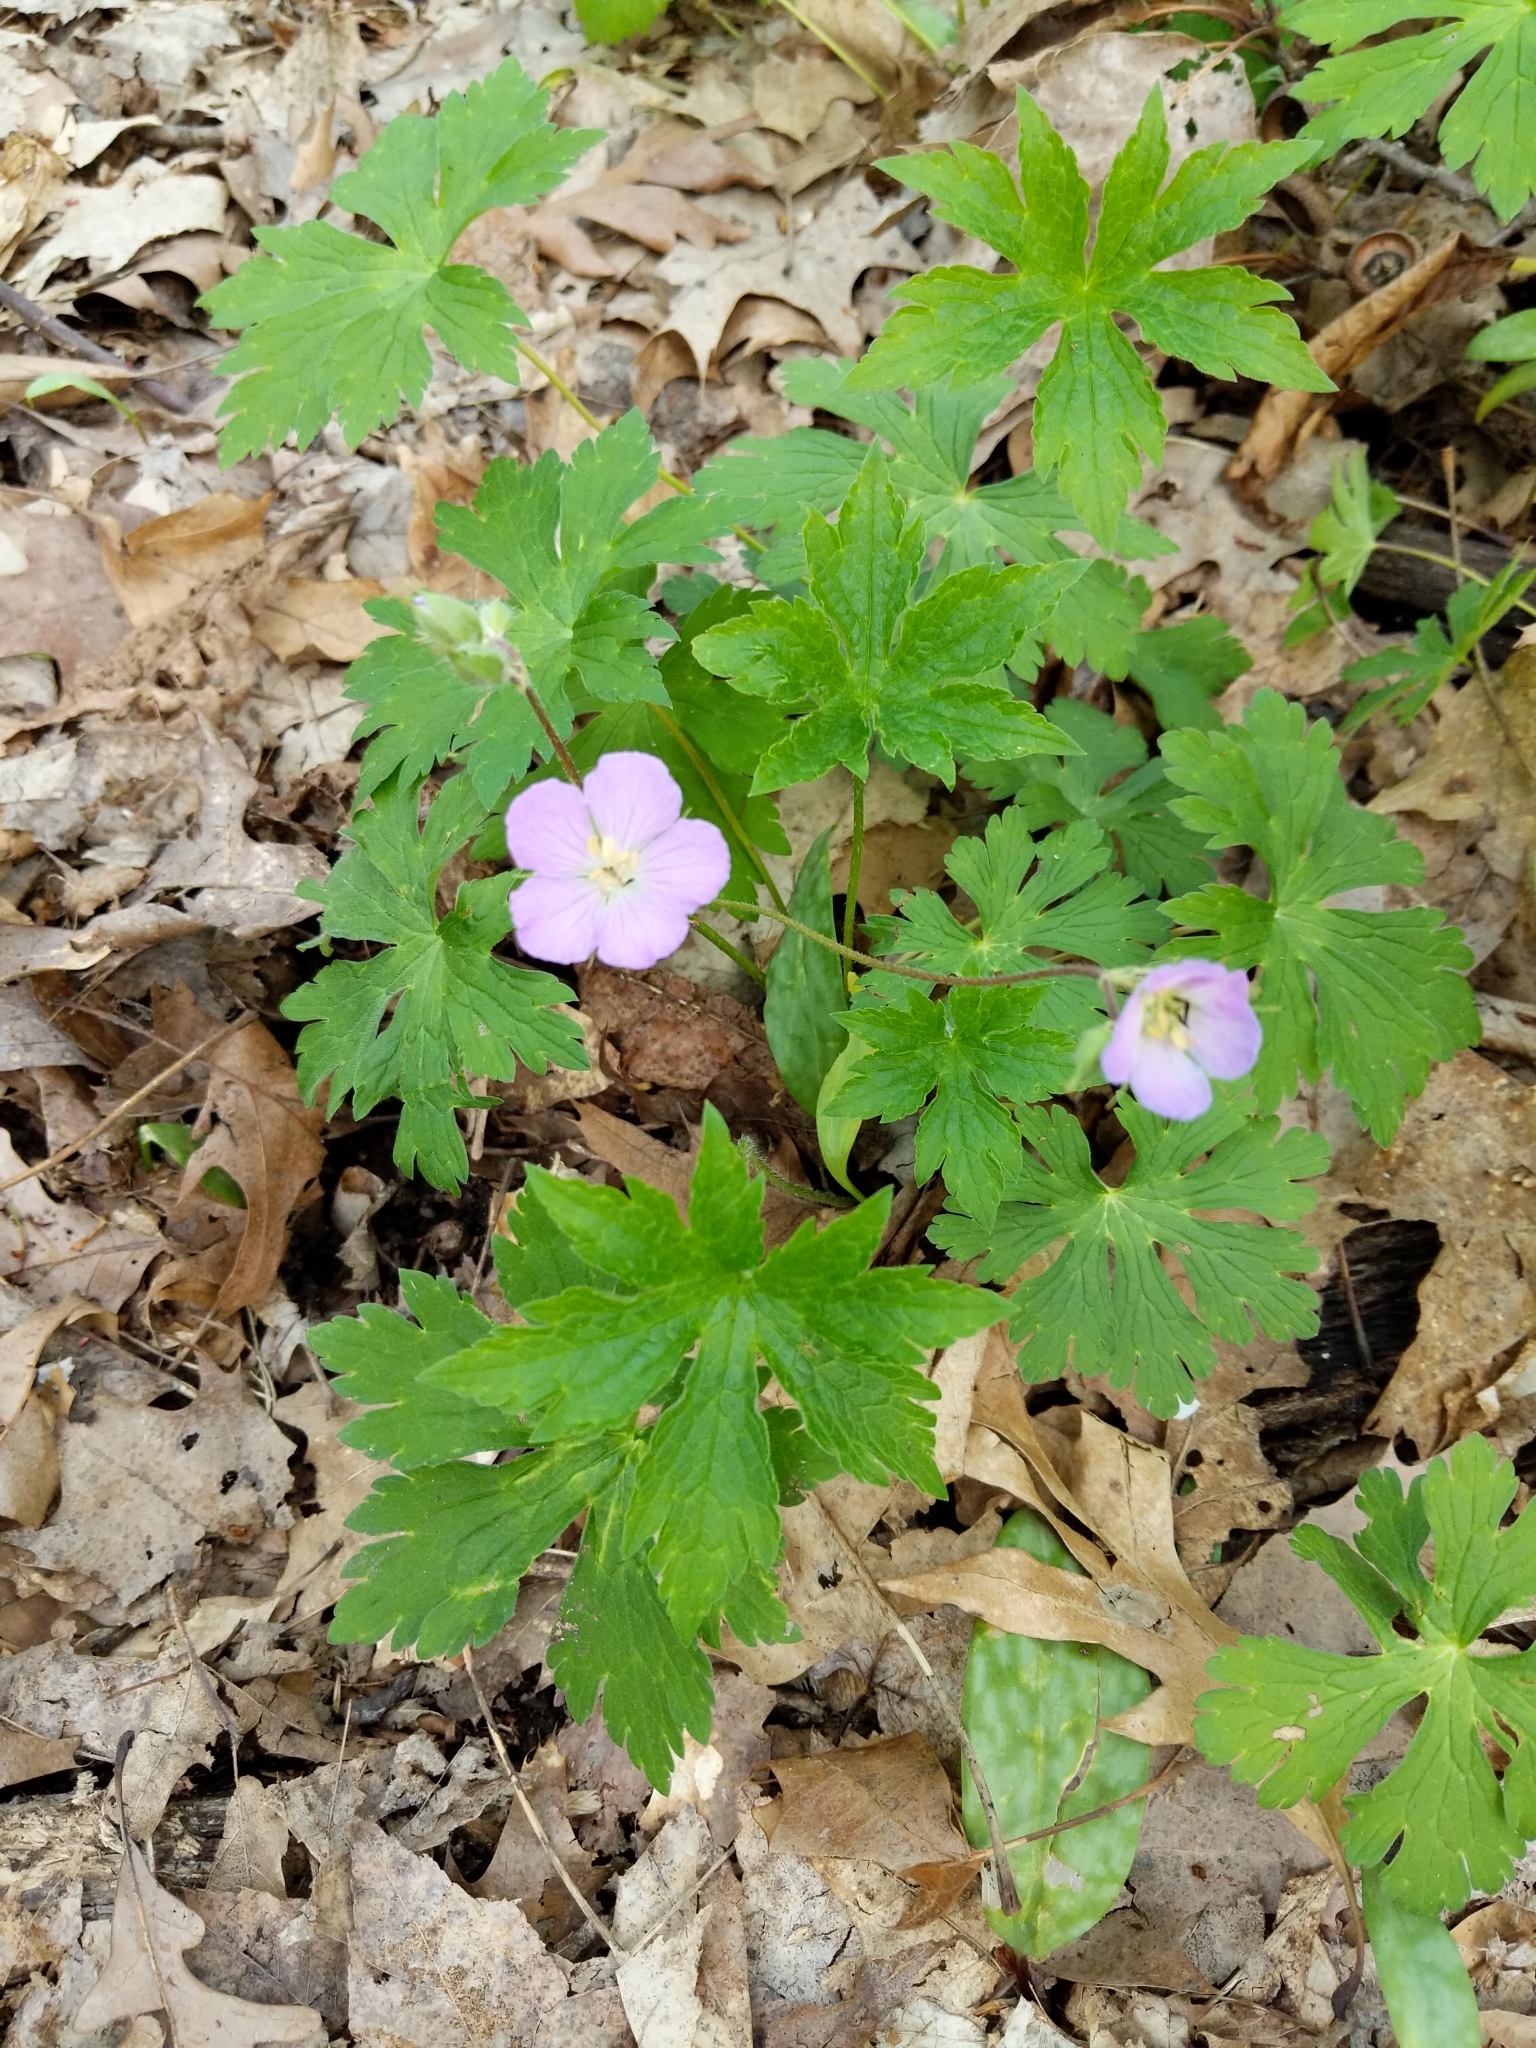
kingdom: Plantae
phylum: Tracheophyta
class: Magnoliopsida
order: Geraniales
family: Geraniaceae
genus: Geranium
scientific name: Geranium maculatum
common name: Spotted geranium
